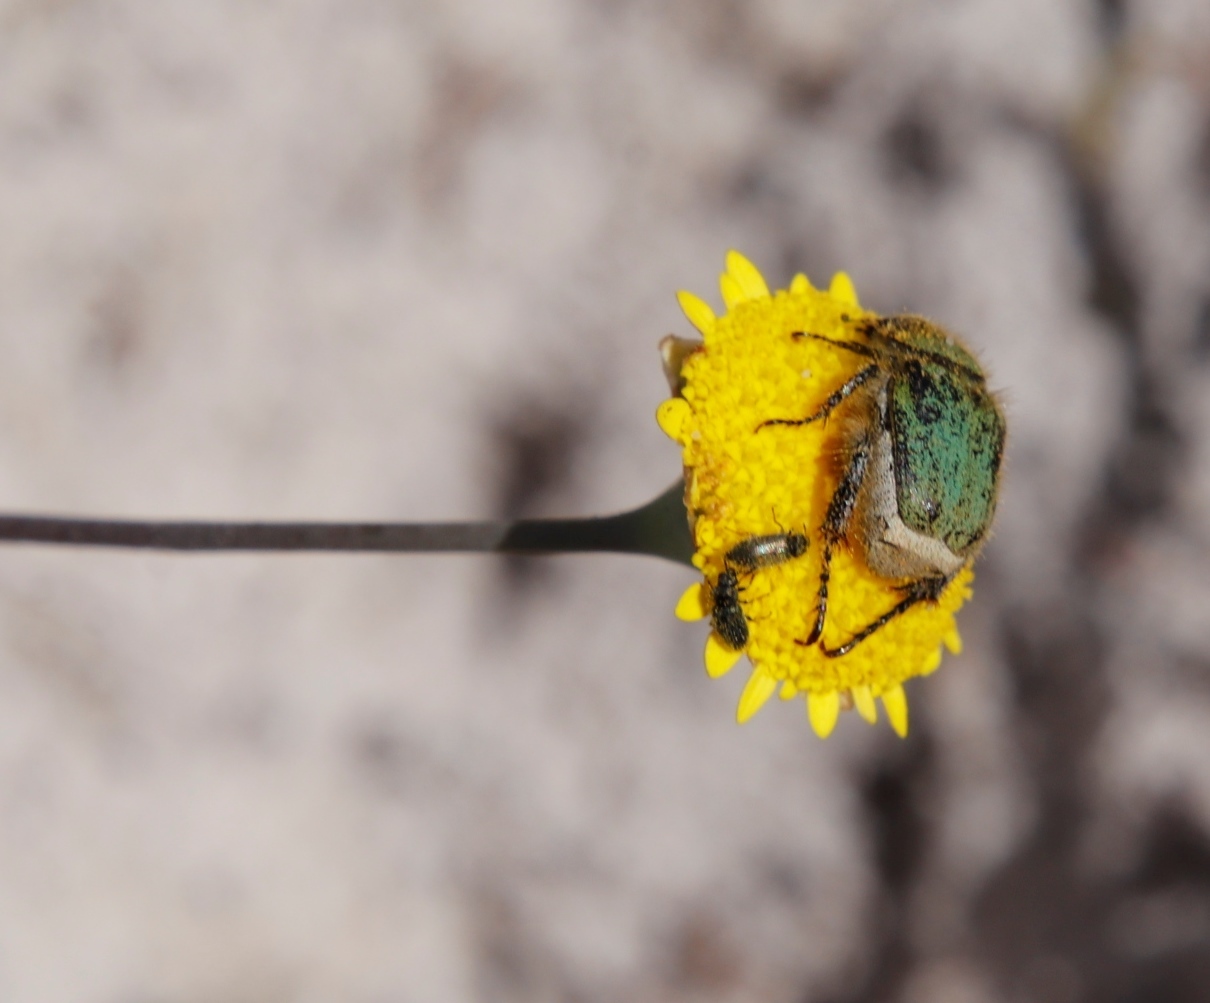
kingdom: Plantae
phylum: Tracheophyta
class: Magnoliopsida
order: Asterales
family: Asteraceae
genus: Cotula
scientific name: Cotula pruinosa
